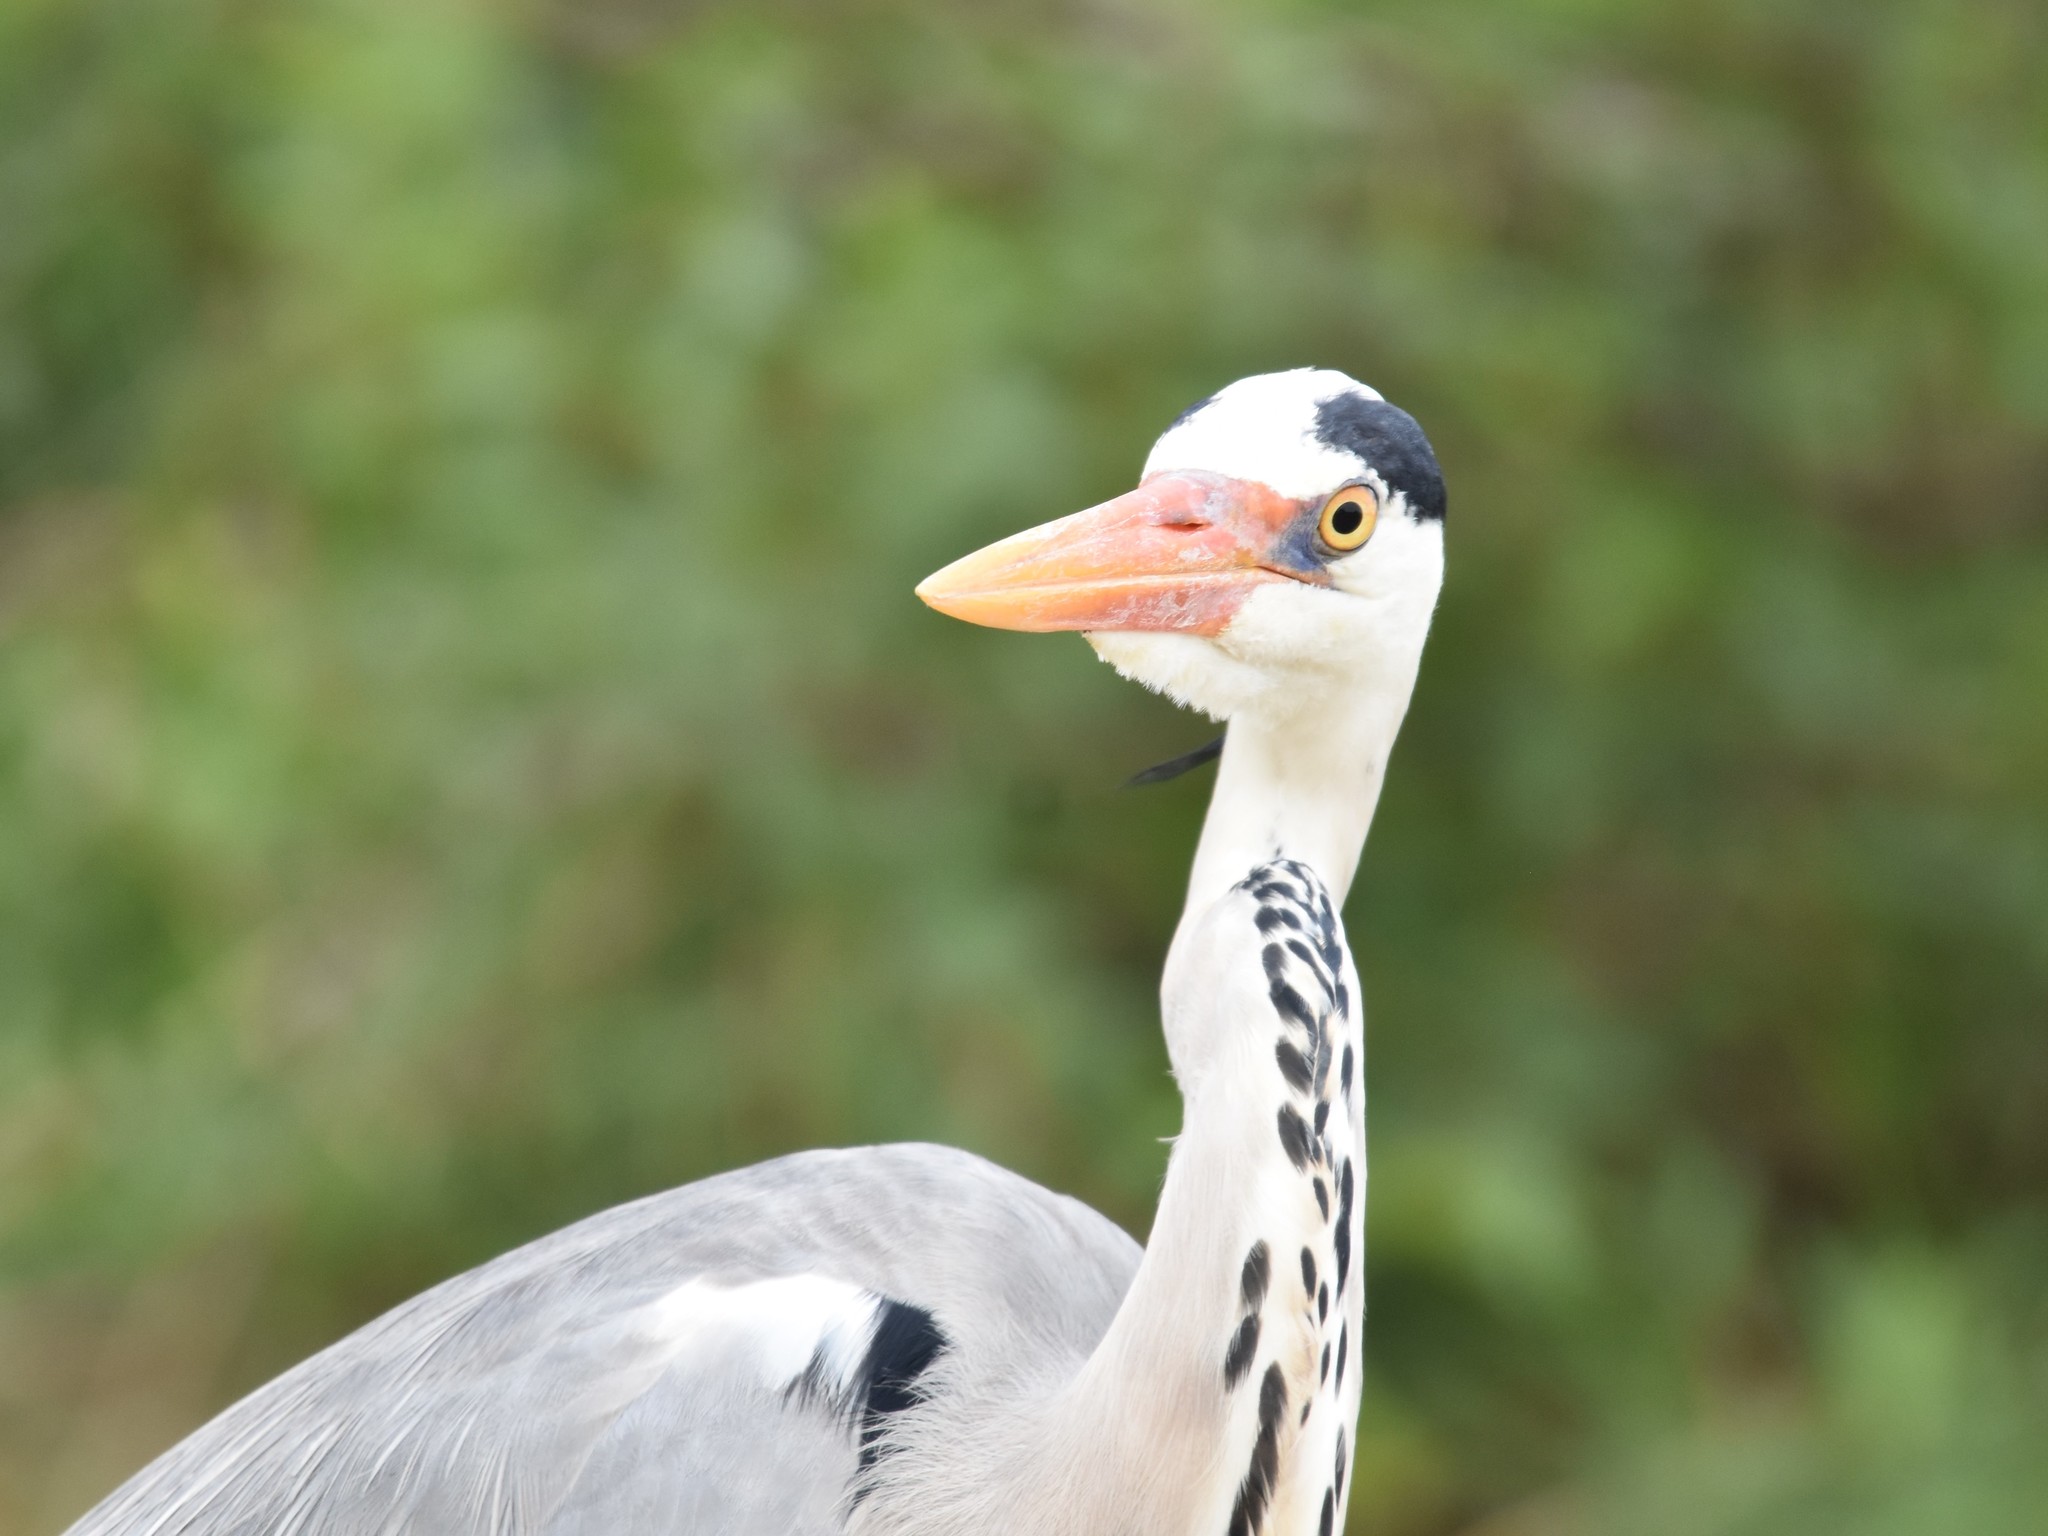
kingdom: Animalia
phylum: Chordata
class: Aves
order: Pelecaniformes
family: Ardeidae
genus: Ardea
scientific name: Ardea cinerea
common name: Grey heron
